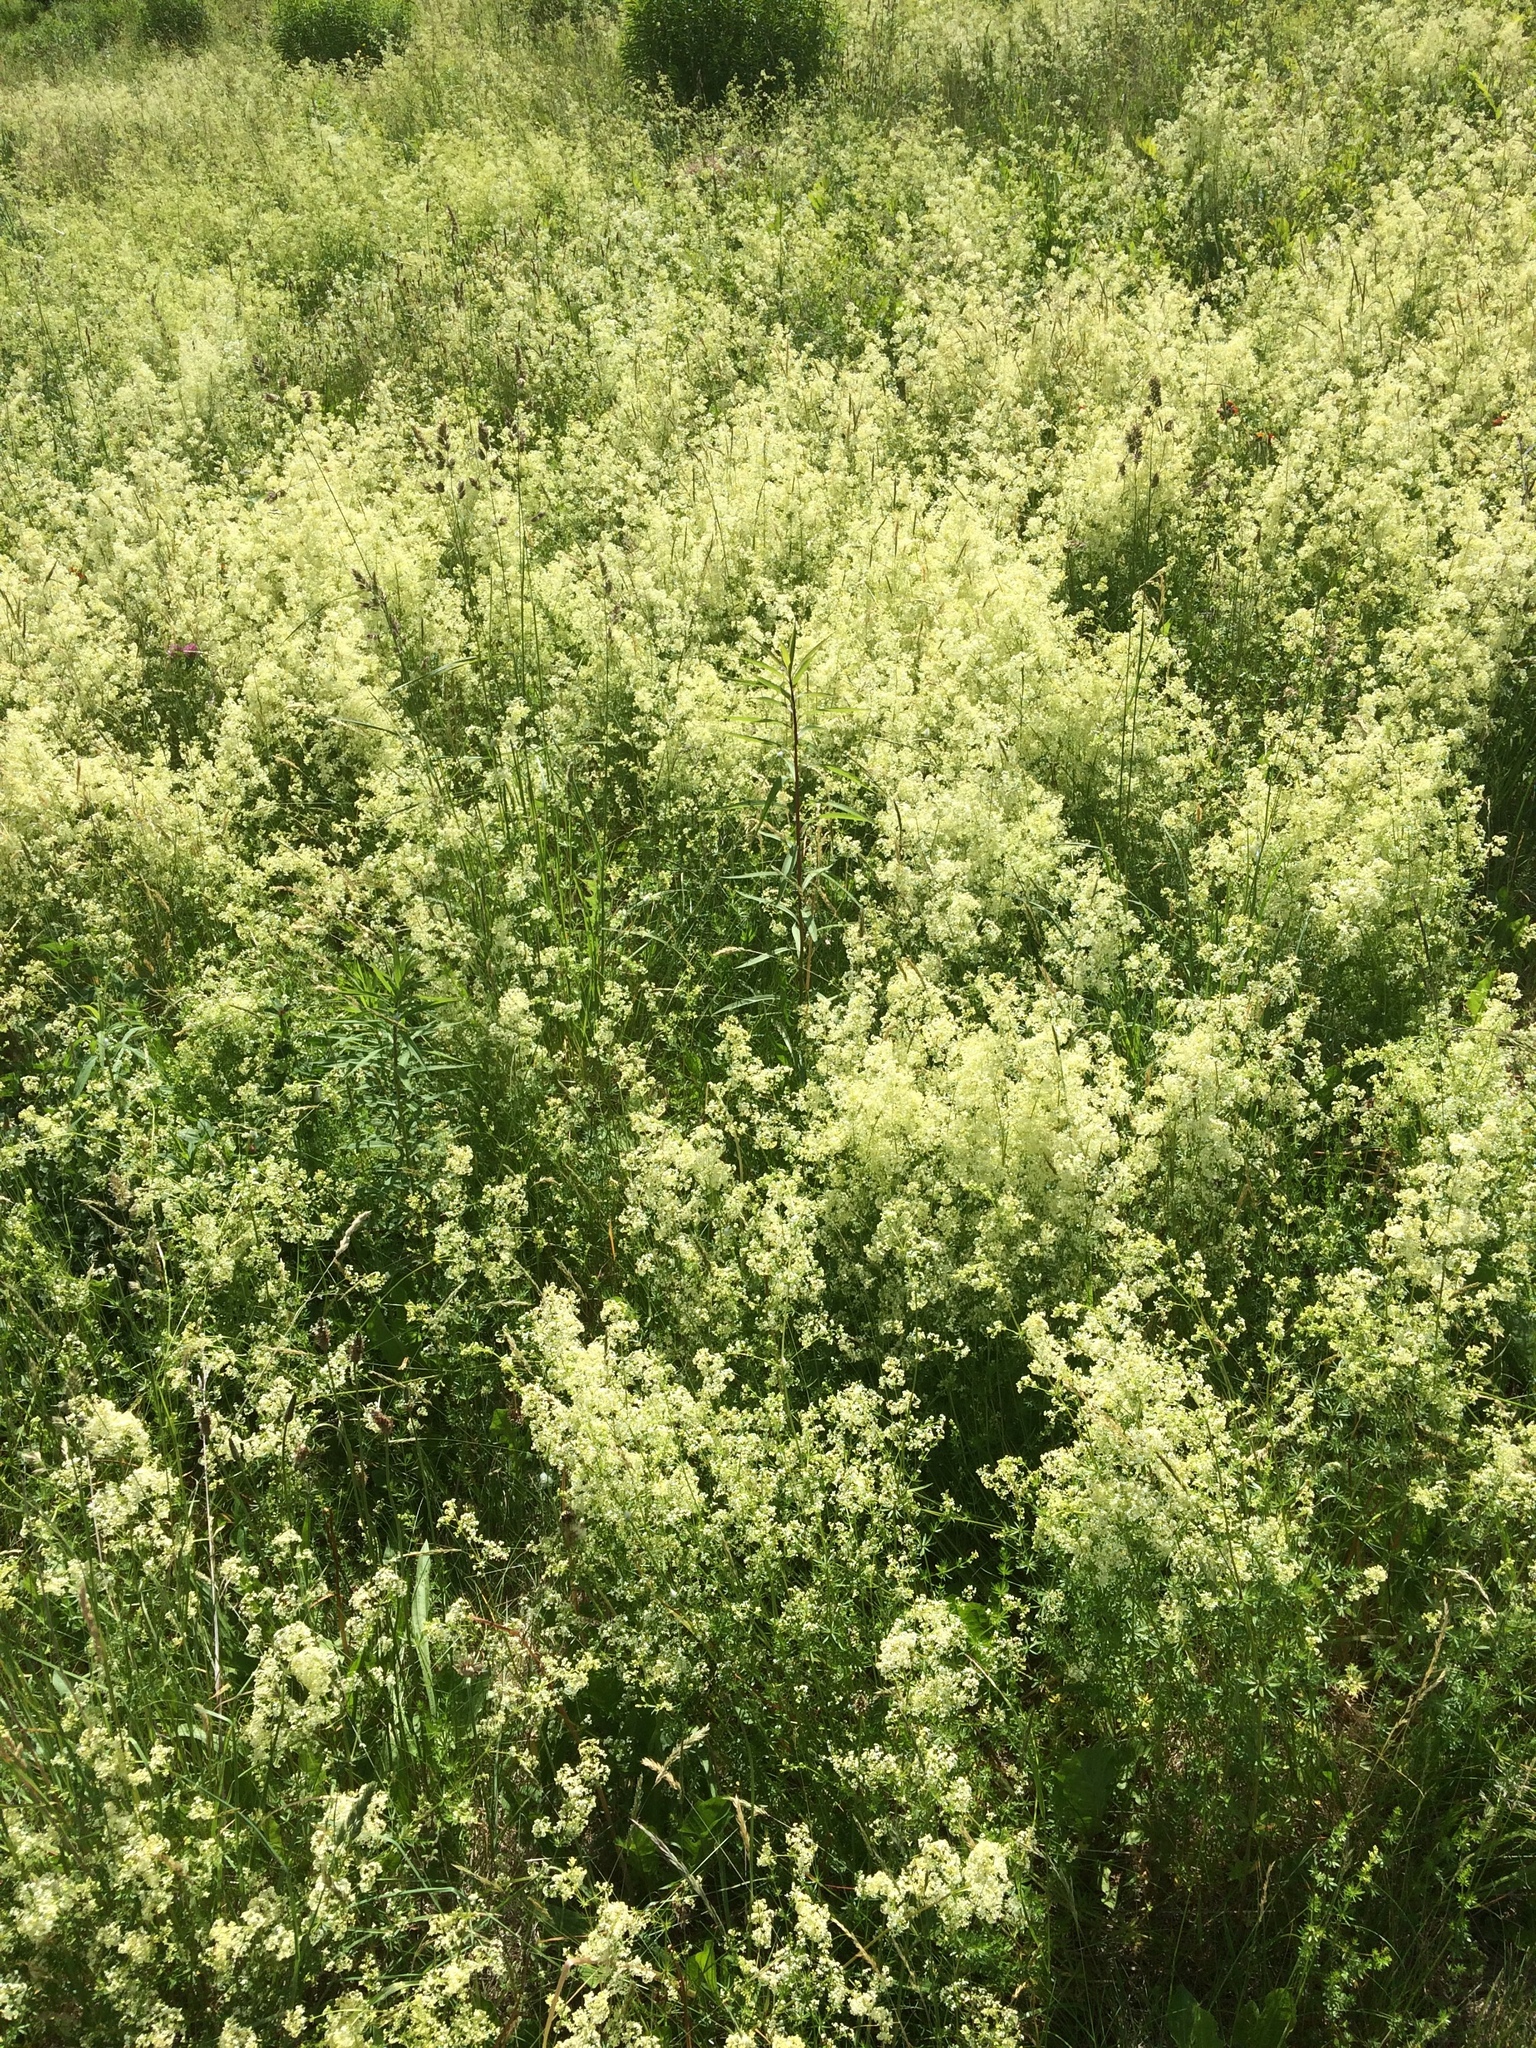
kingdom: Plantae
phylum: Tracheophyta
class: Magnoliopsida
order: Gentianales
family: Rubiaceae
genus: Galium
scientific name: Galium mollugo
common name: Hedge bedstraw
